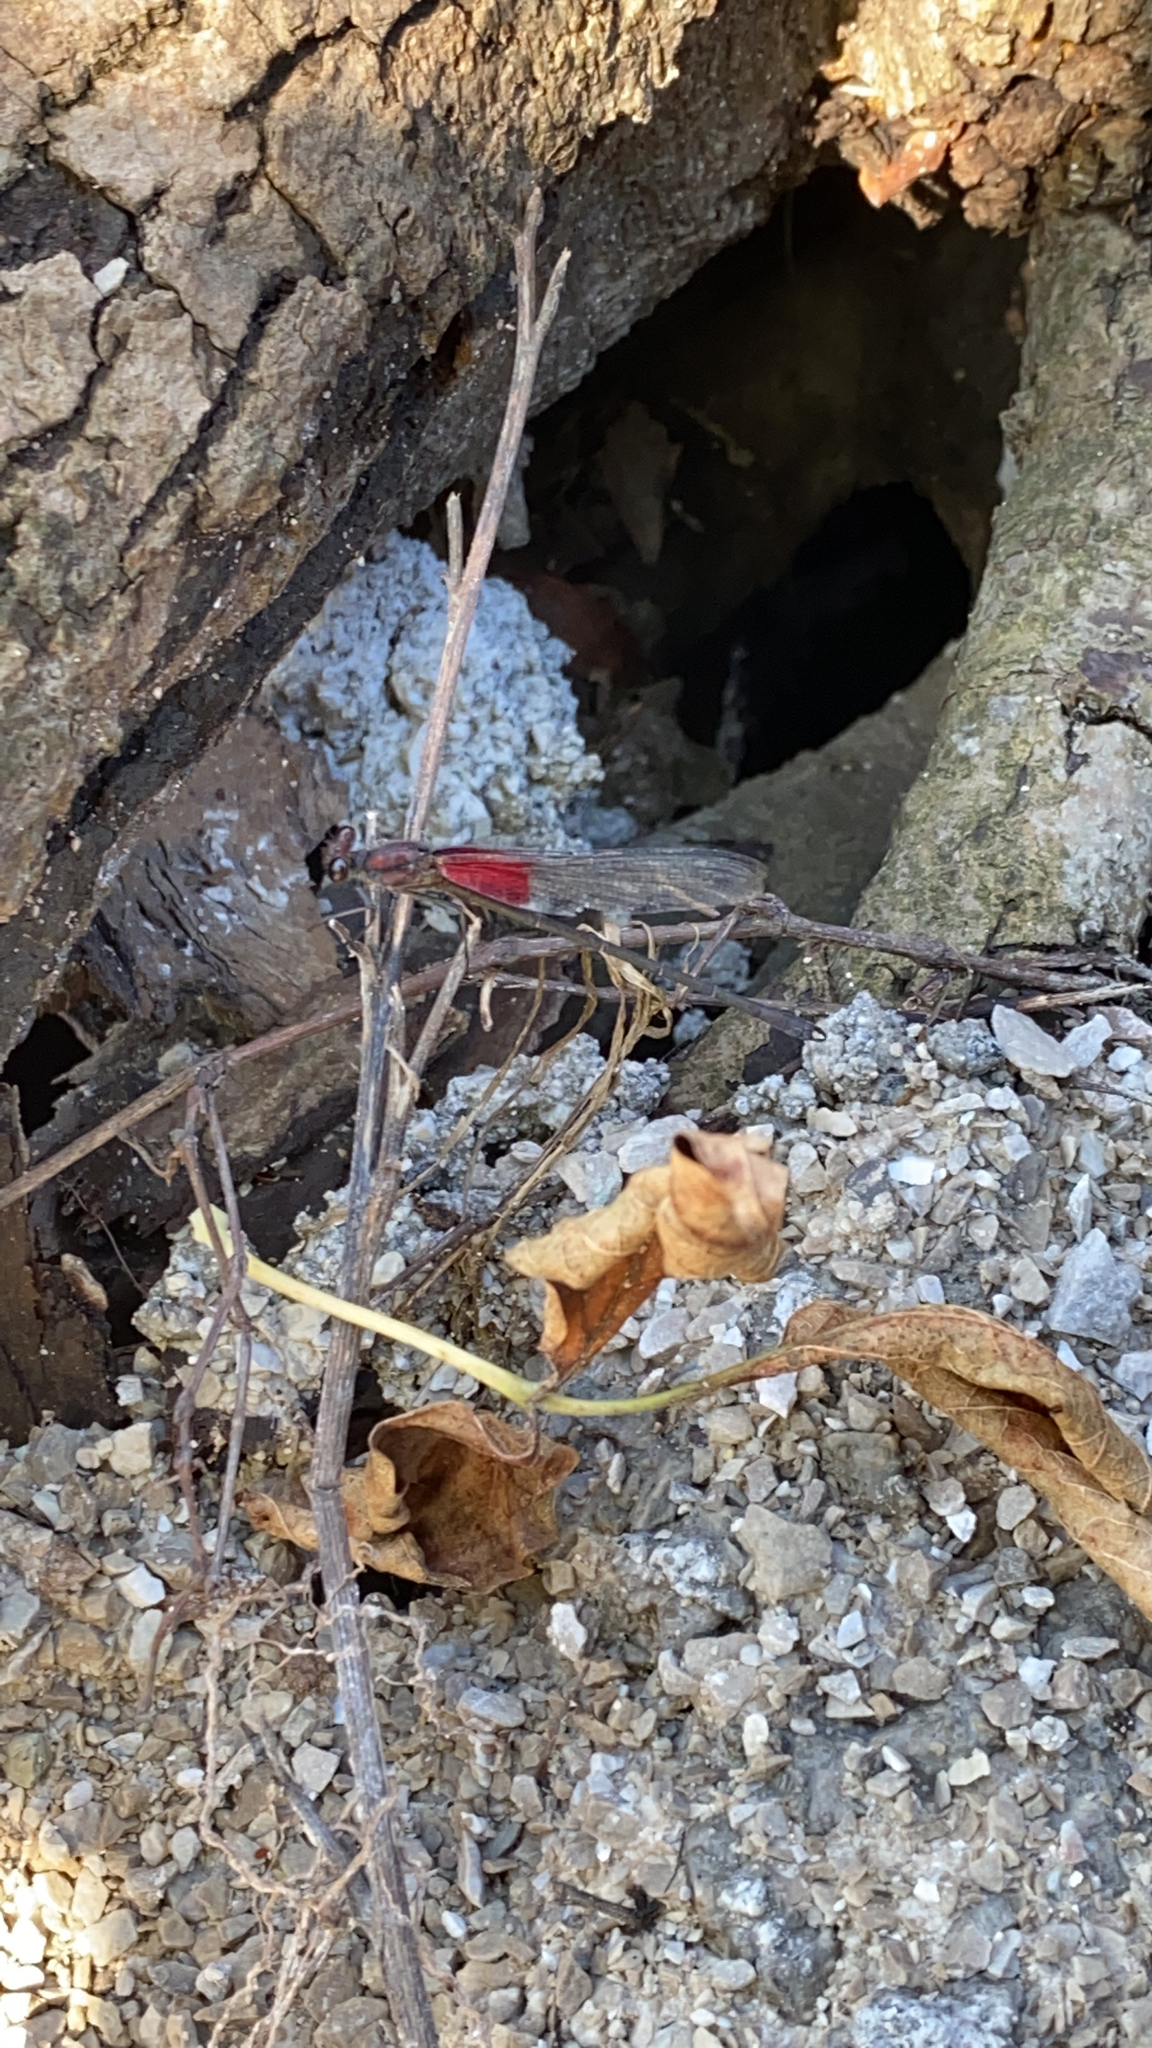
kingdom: Animalia
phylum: Arthropoda
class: Insecta
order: Odonata
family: Calopterygidae
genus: Hetaerina
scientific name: Hetaerina americana
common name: American rubyspot
